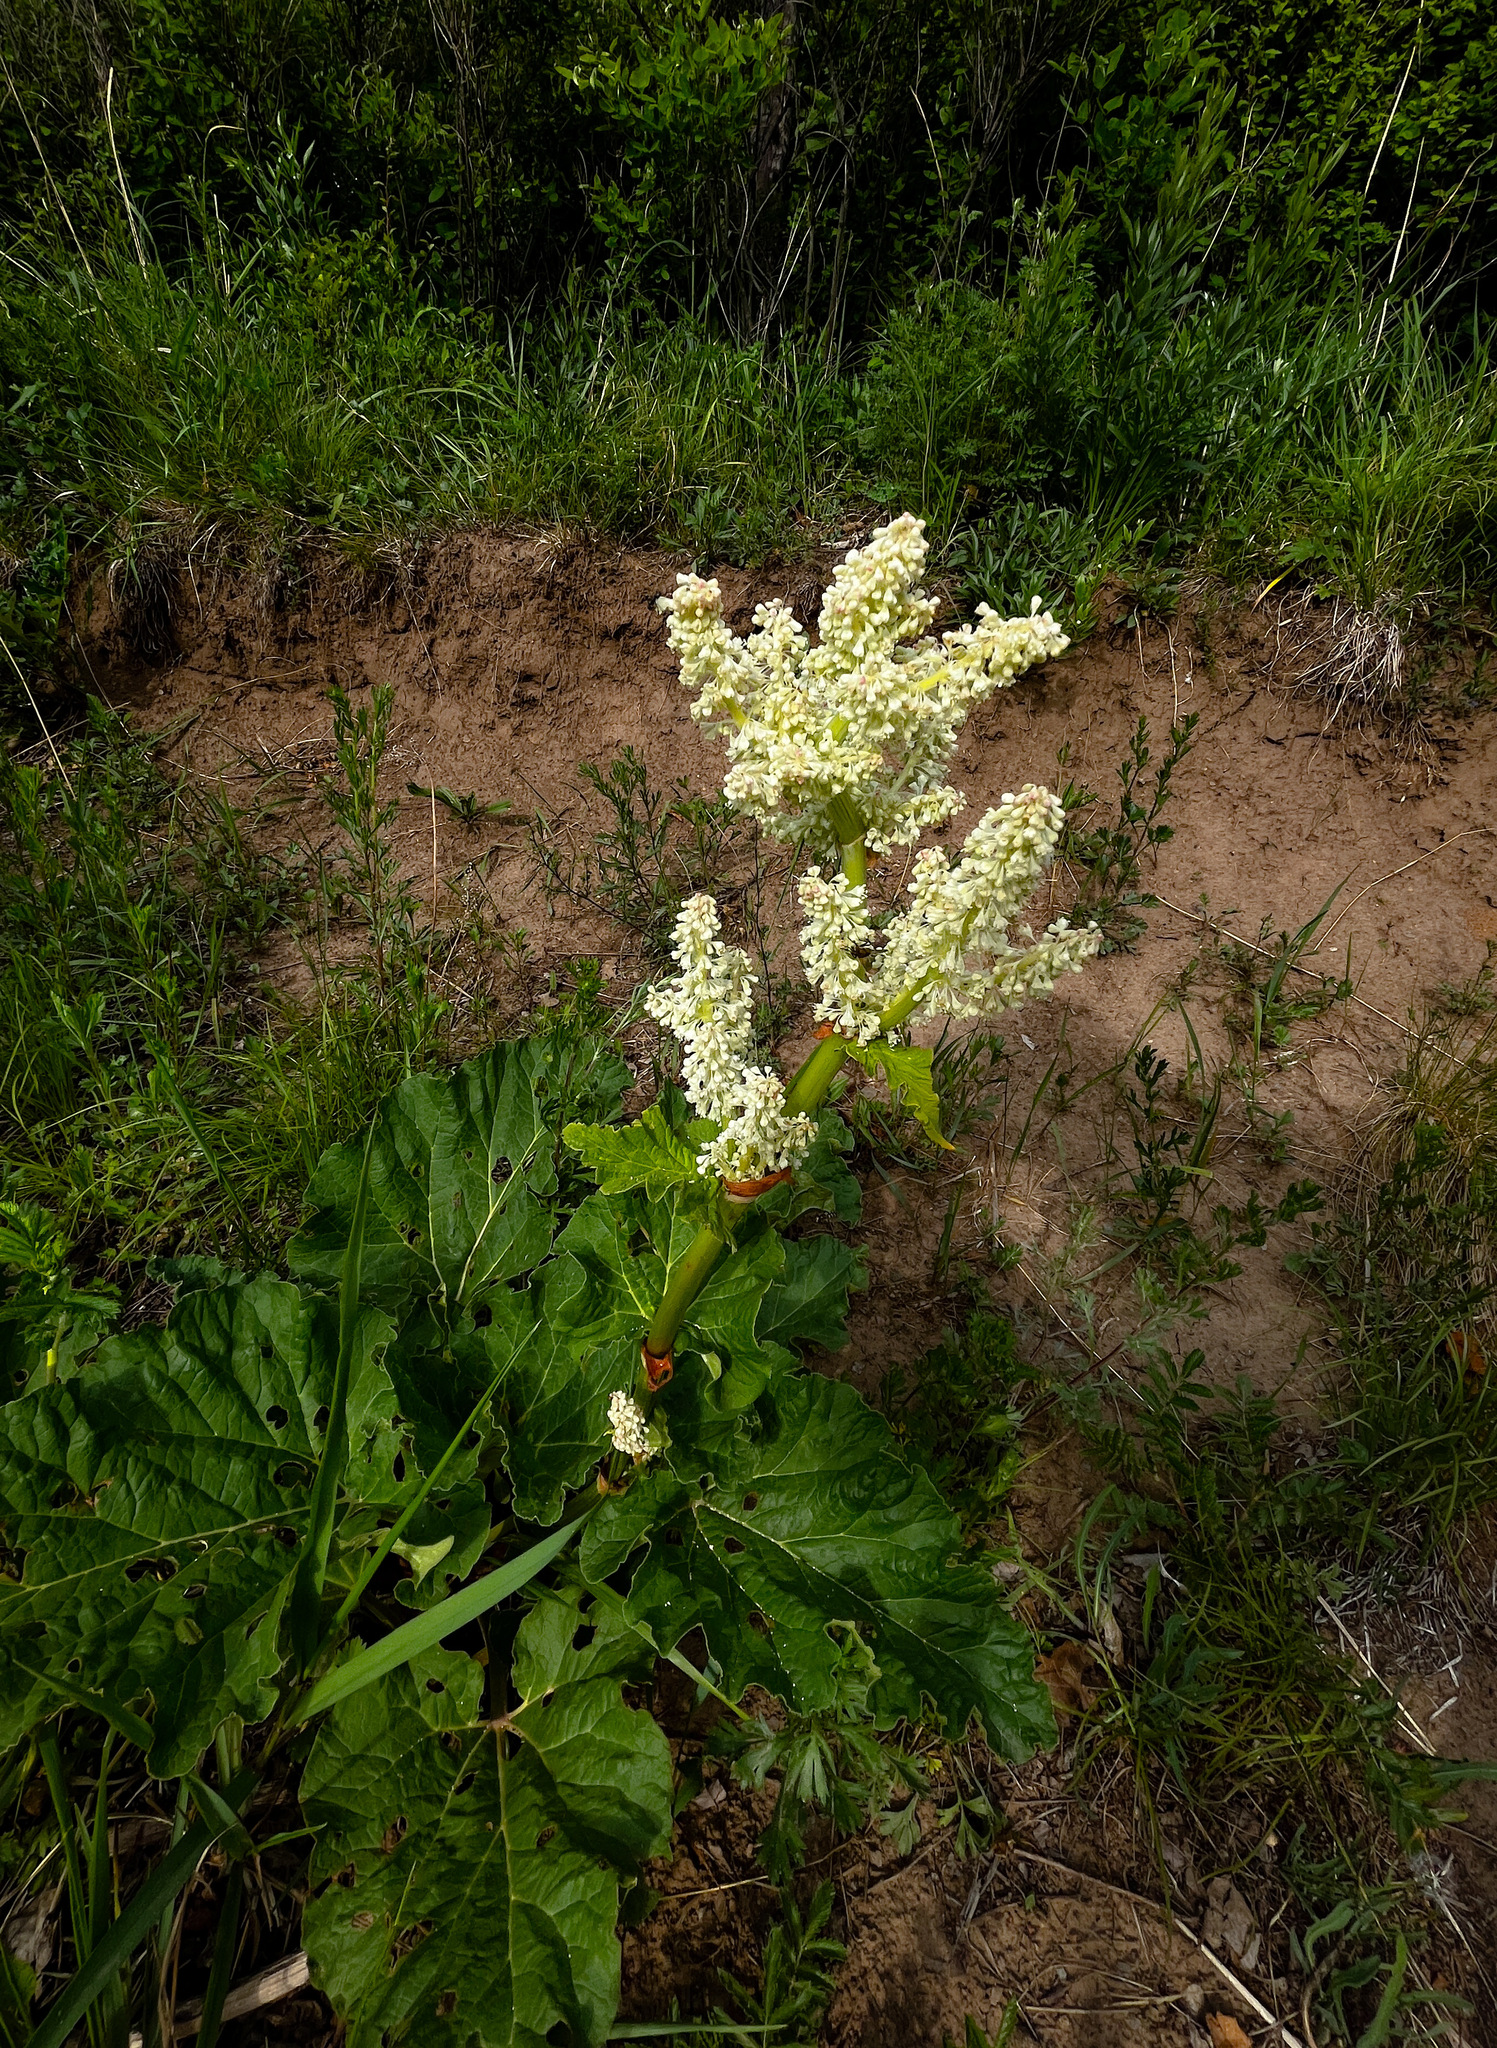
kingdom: Plantae
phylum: Tracheophyta
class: Magnoliopsida
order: Caryophyllales
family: Polygonaceae
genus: Rheum
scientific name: Rheum rhabarbarum
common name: Garden rhubarb
